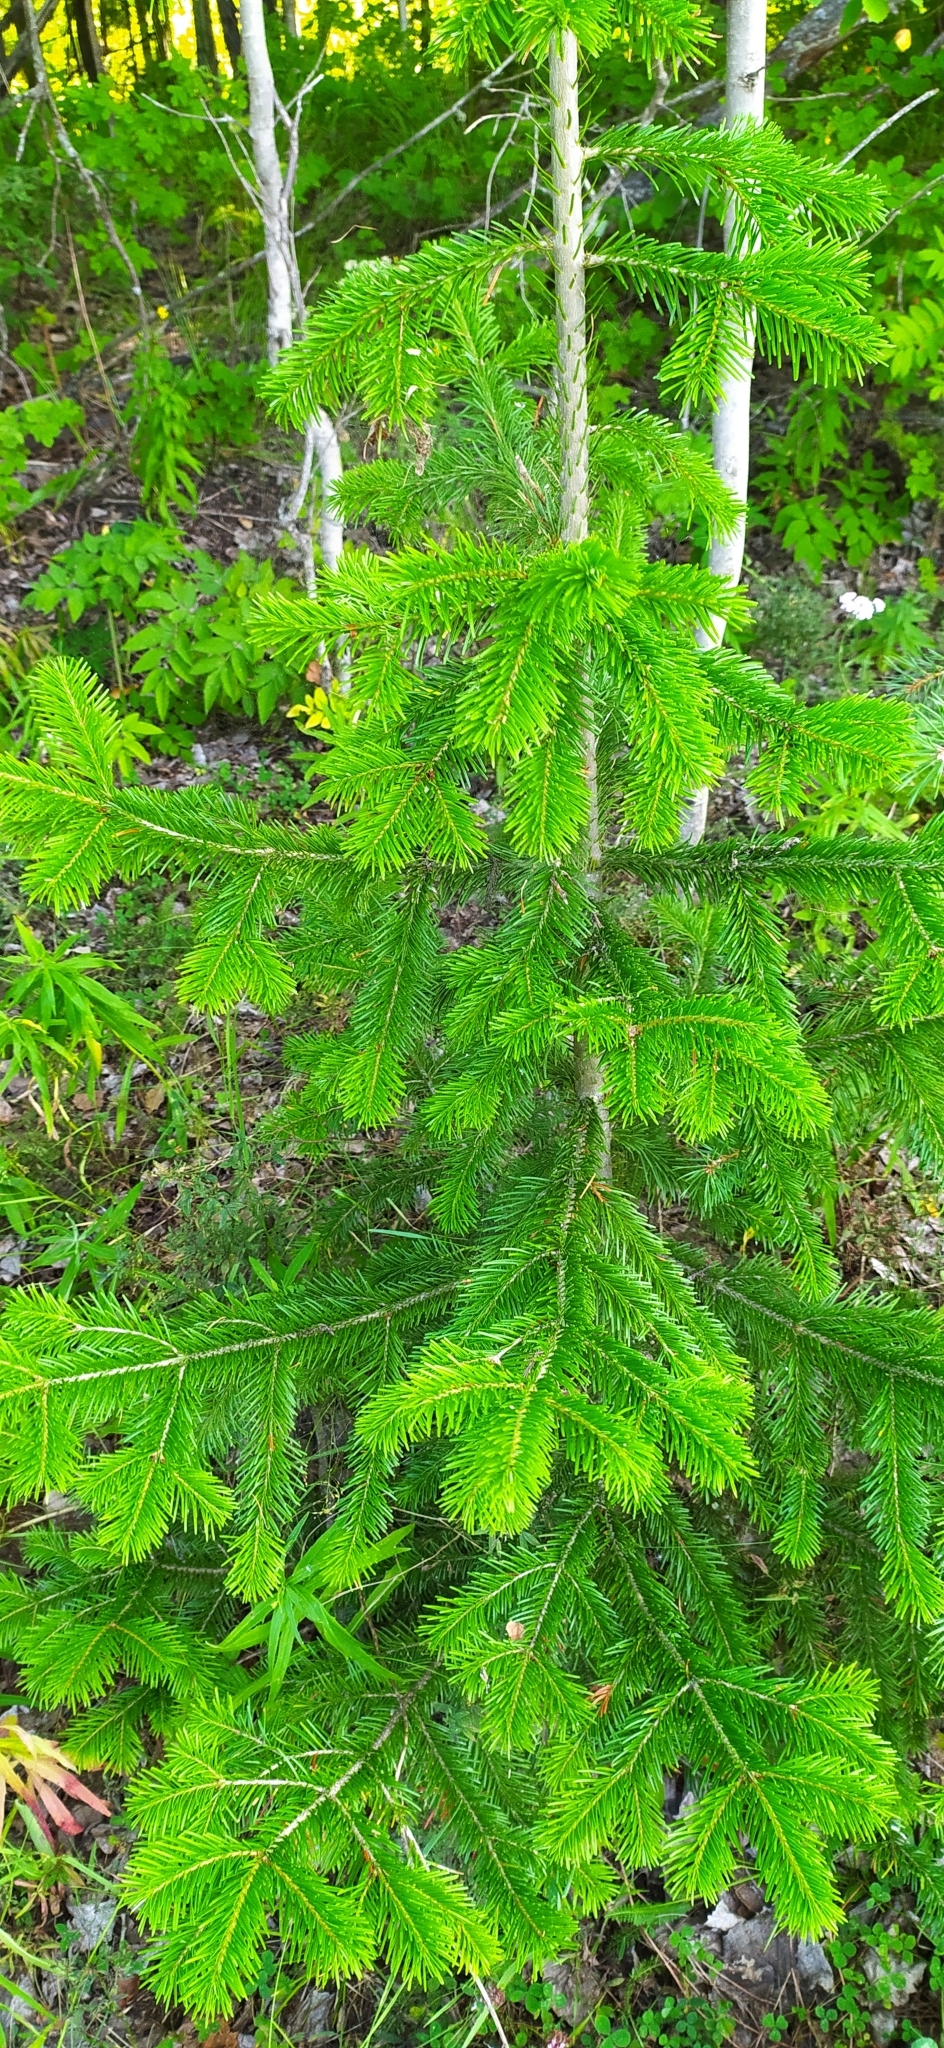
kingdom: Plantae
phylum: Tracheophyta
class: Pinopsida
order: Pinales
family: Pinaceae
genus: Abies
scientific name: Abies sibirica
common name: Siberian fir
